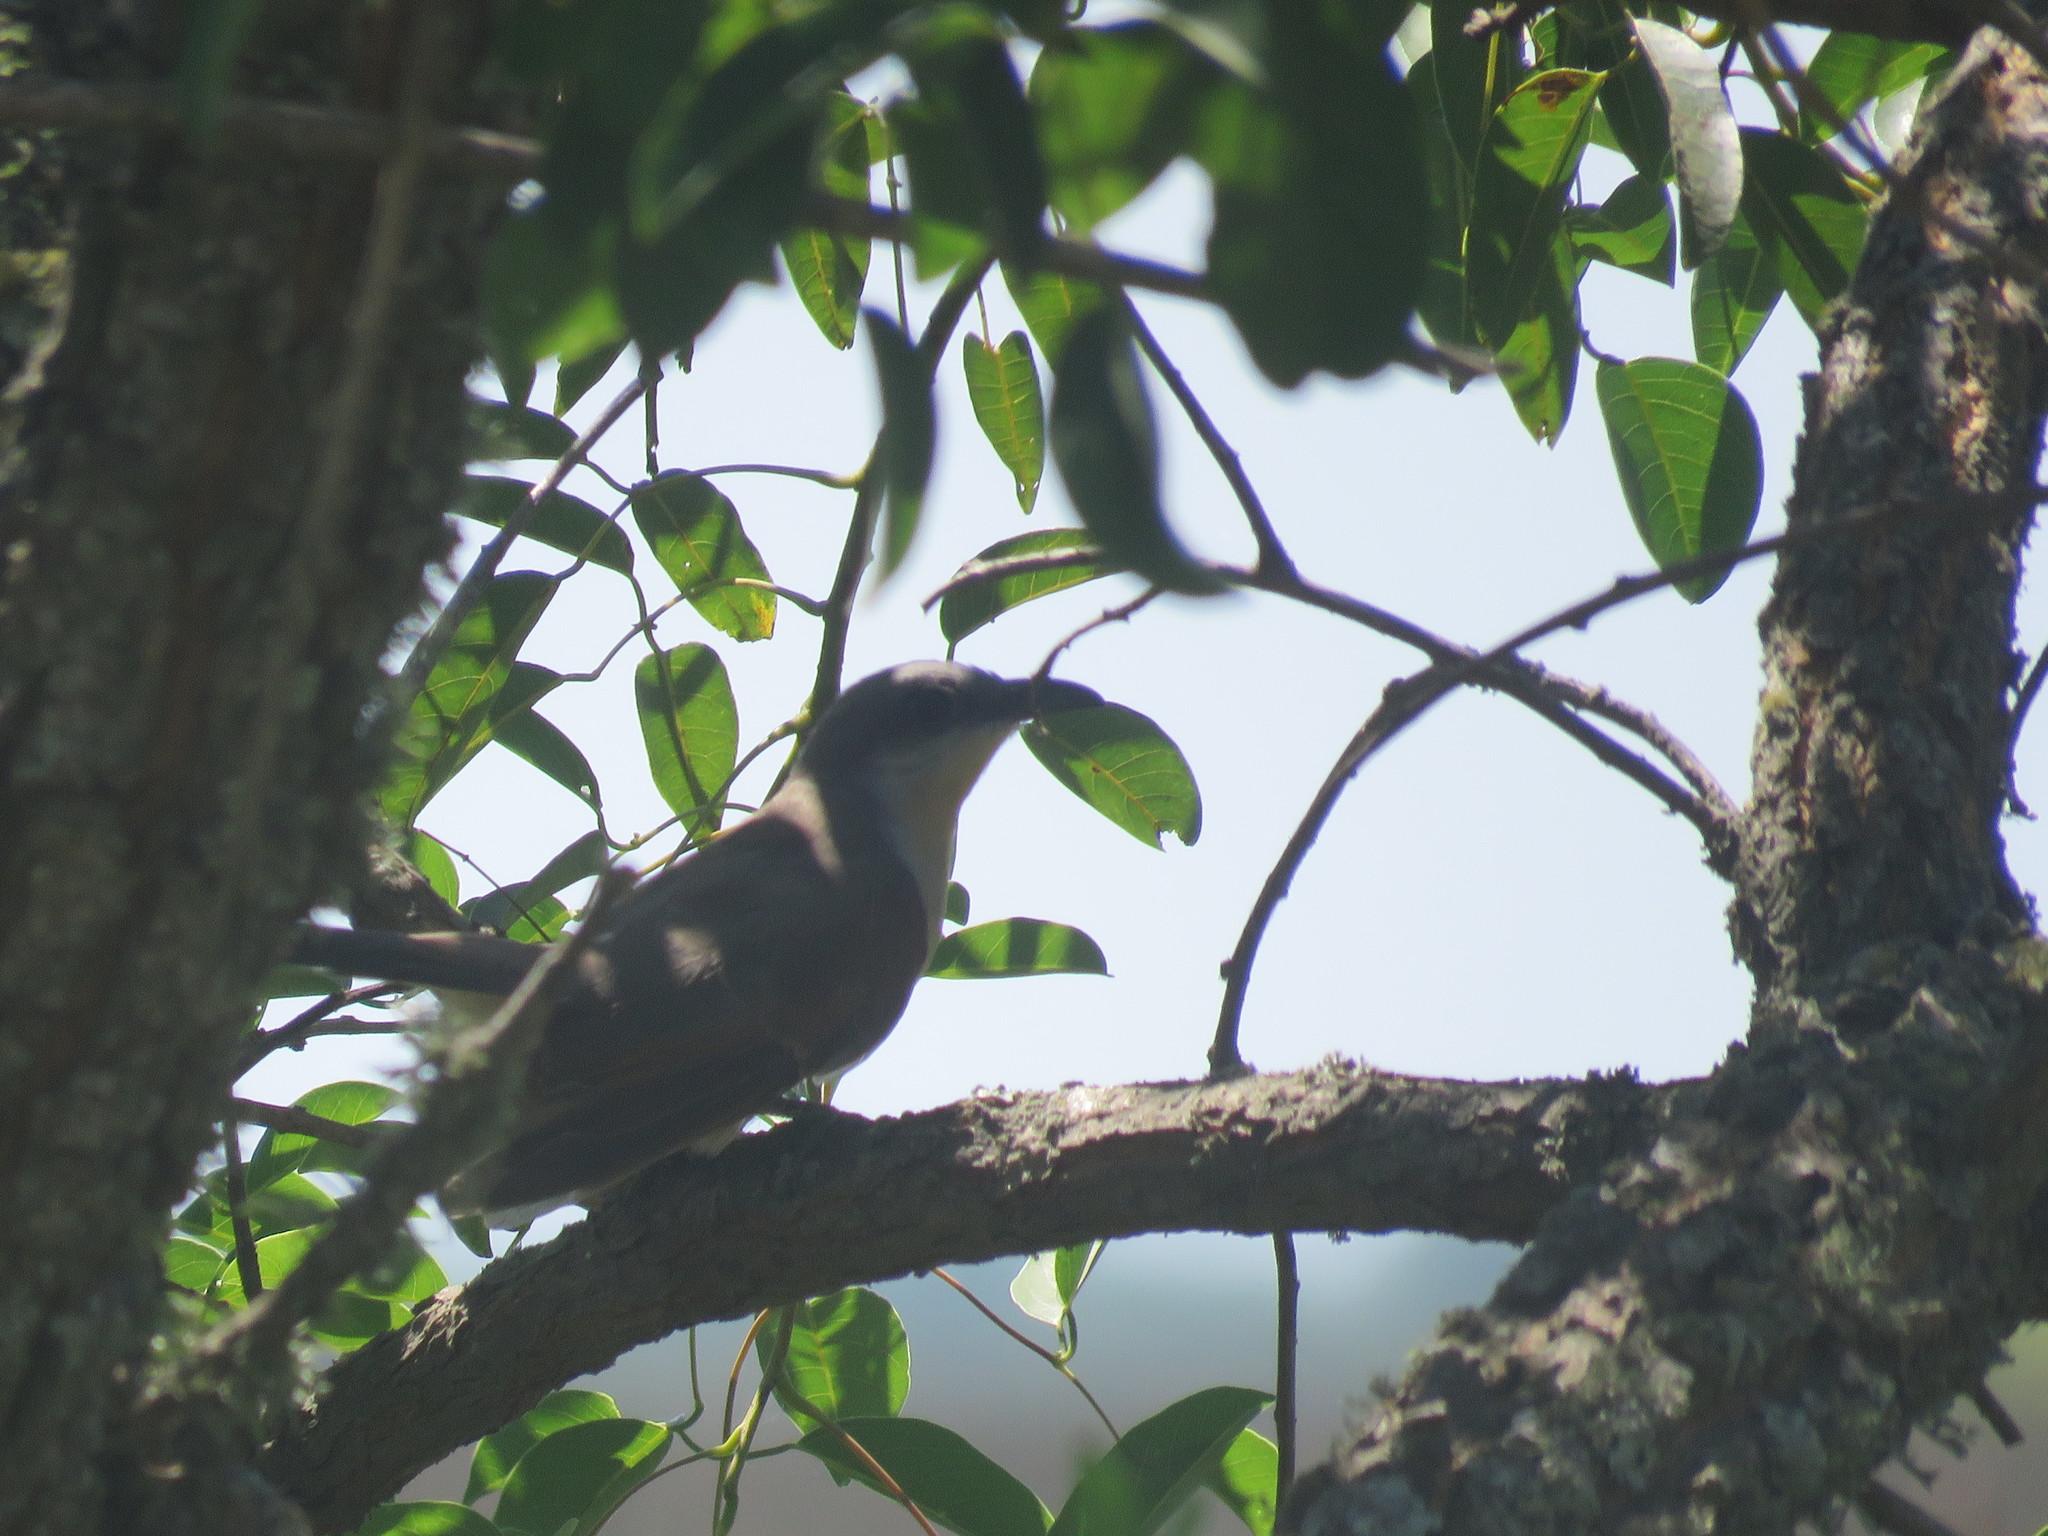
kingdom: Animalia
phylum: Chordata
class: Aves
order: Cuculiformes
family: Cuculidae
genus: Coccyzus
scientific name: Coccyzus melacoryphus
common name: Dark-billed cuckoo
